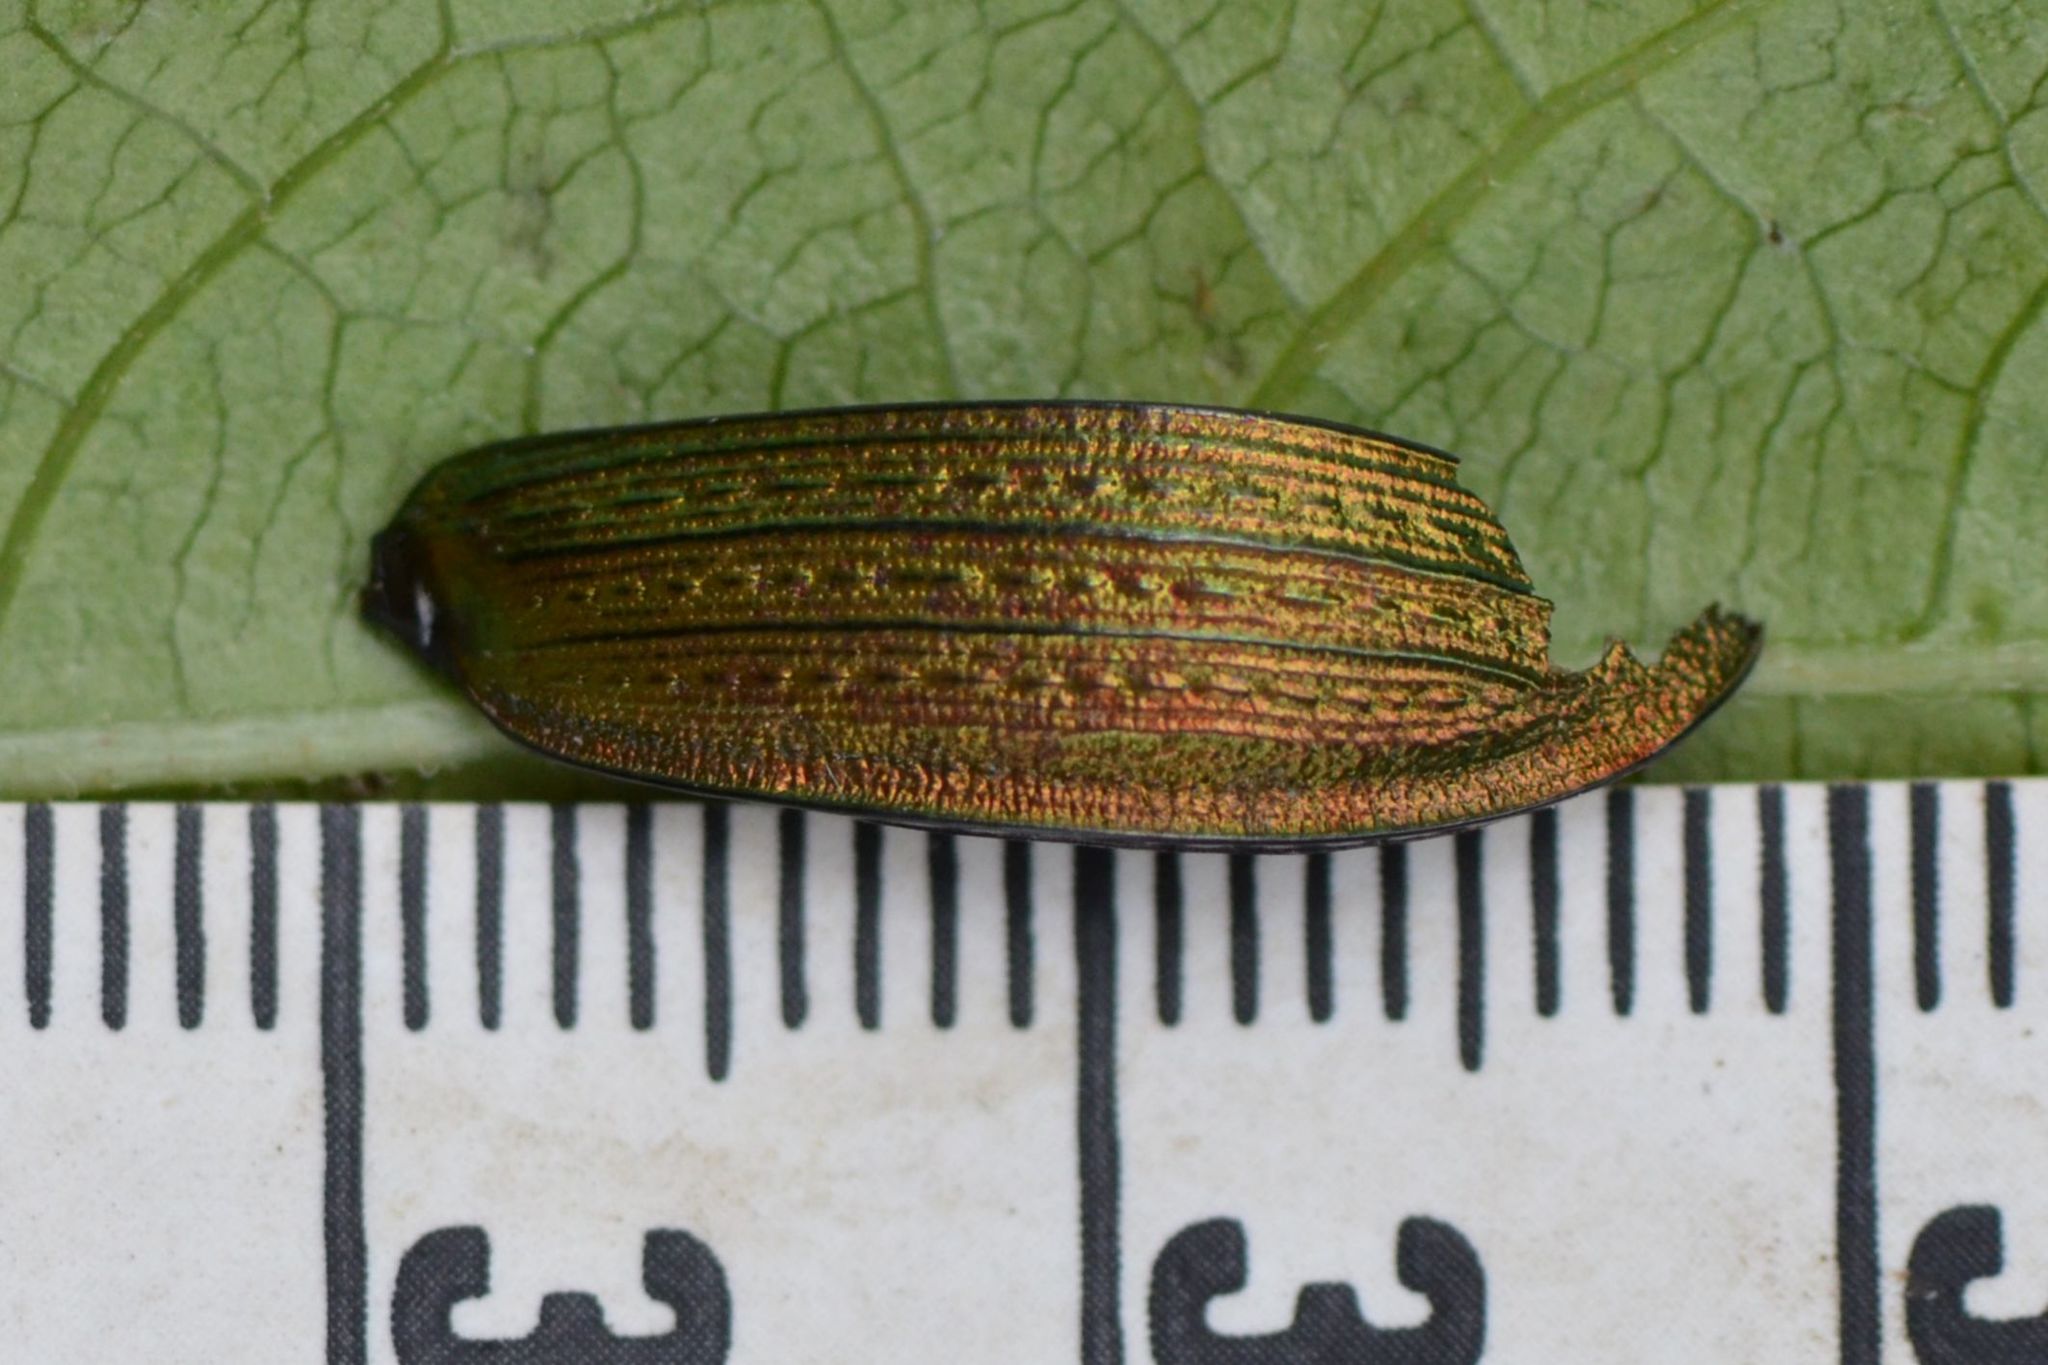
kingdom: Animalia
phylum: Arthropoda
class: Insecta
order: Coleoptera
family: Carabidae
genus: Carabus
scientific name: Carabus monilis
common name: Necklace ground beetle
